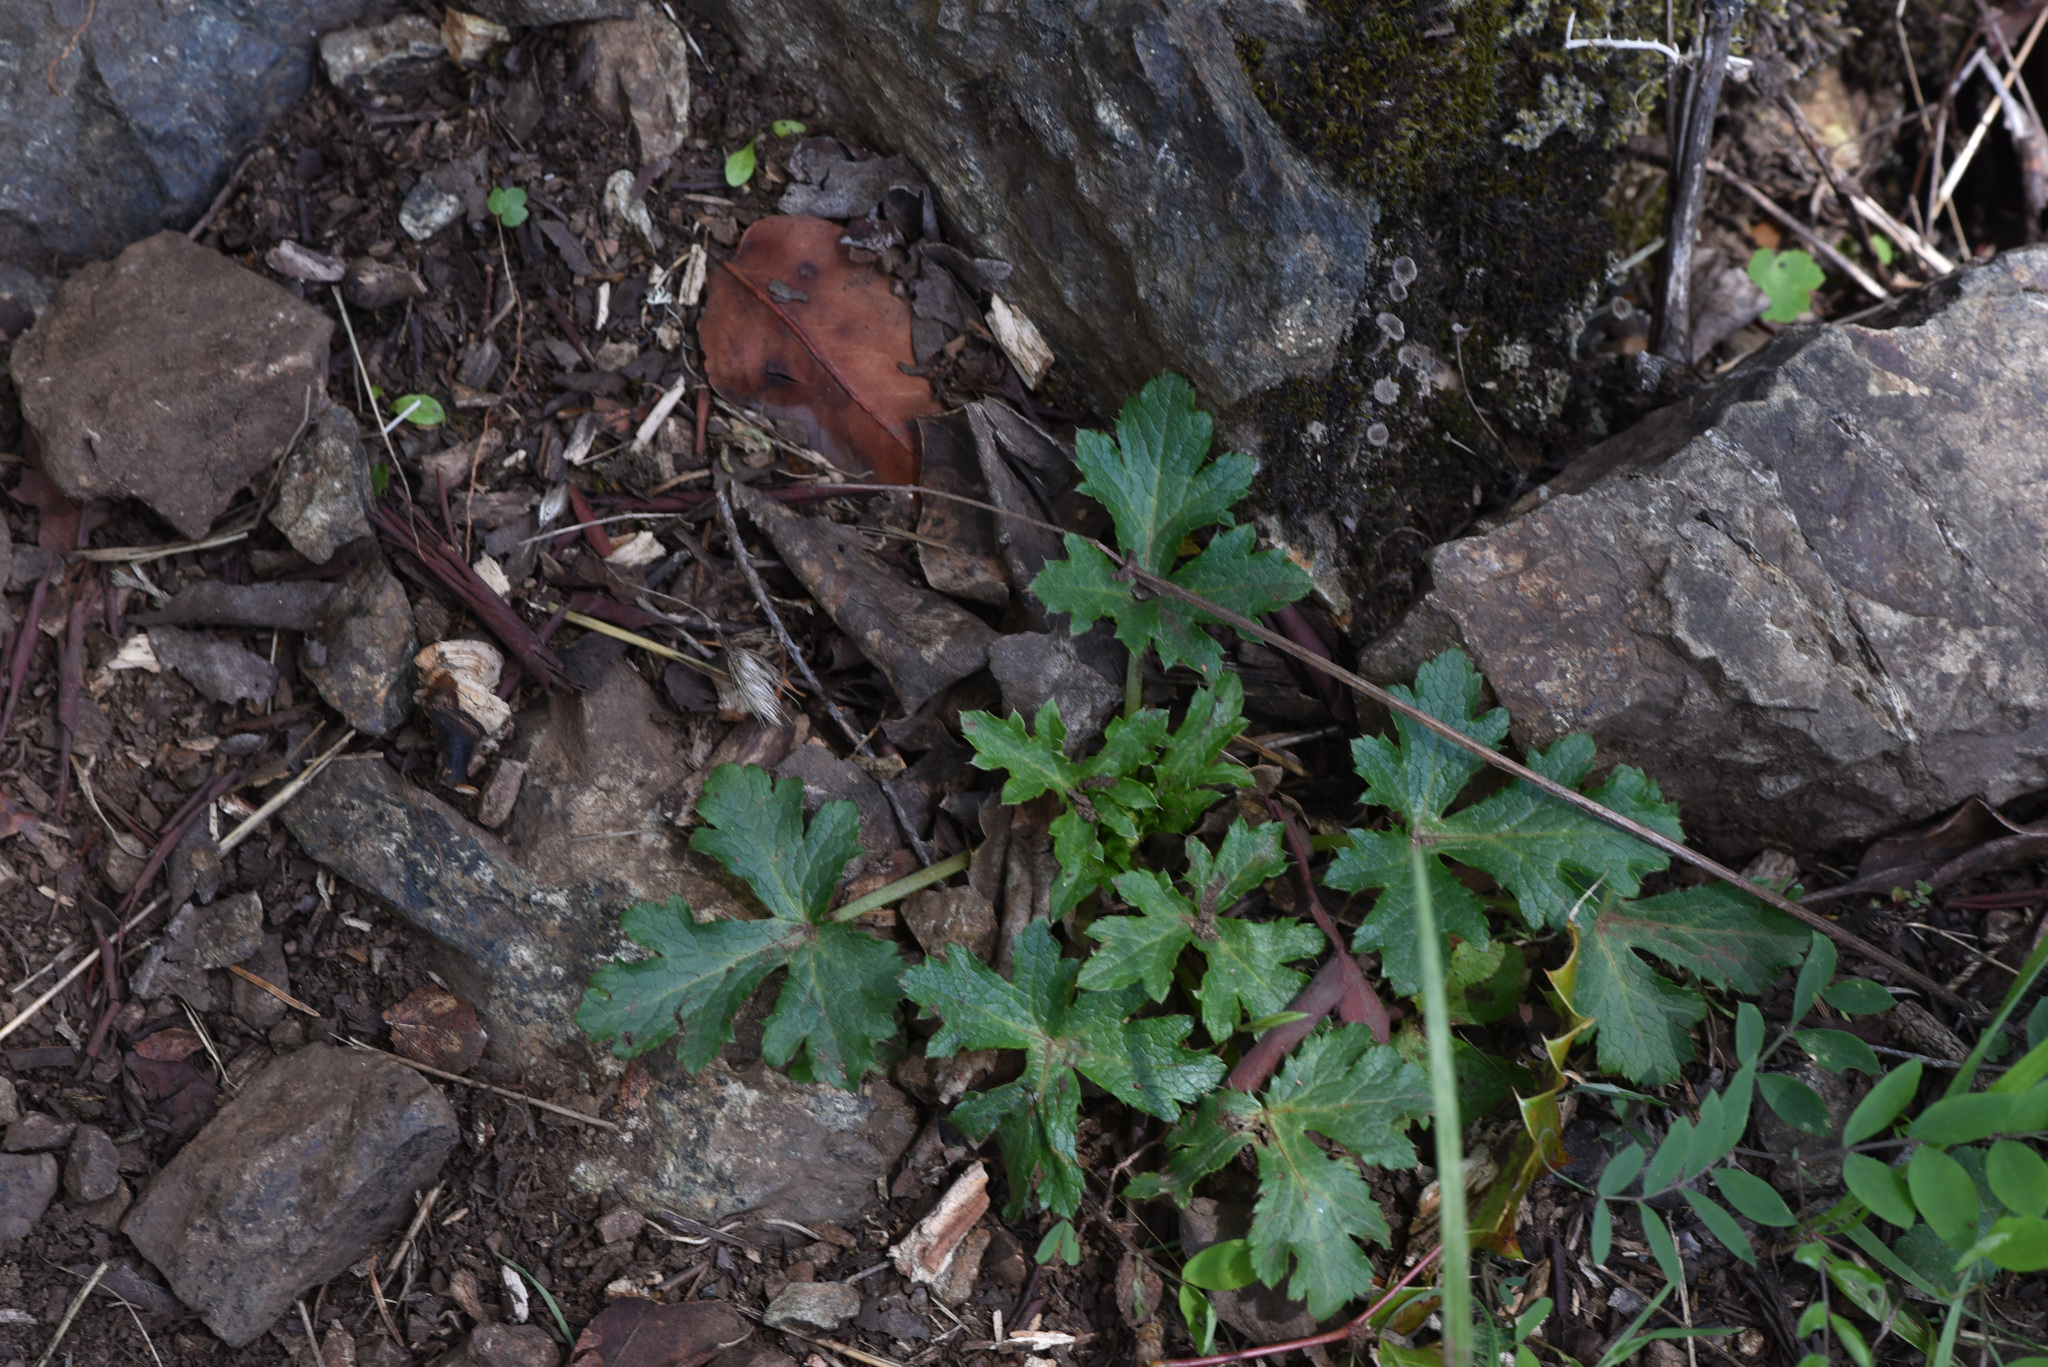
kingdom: Plantae
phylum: Tracheophyta
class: Magnoliopsida
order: Apiales
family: Apiaceae
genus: Sanicula
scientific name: Sanicula crassicaulis
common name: Western snakeroot
